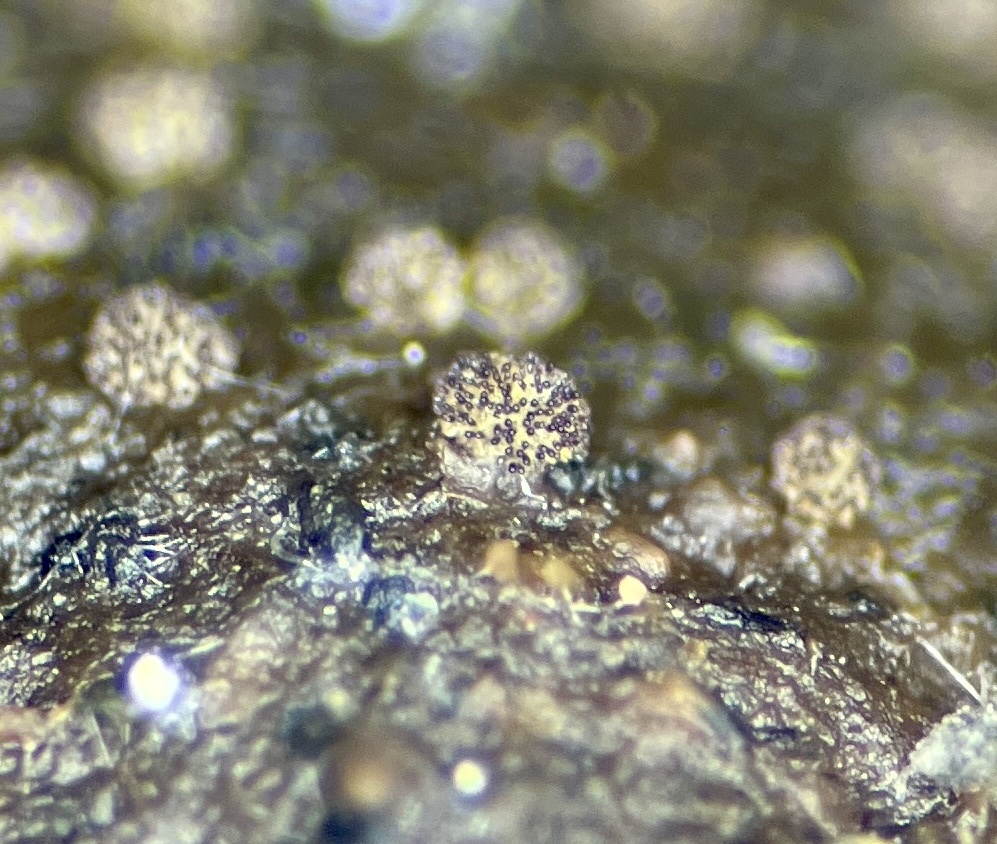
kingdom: Fungi
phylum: Ascomycota
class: Pezizomycetes
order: Pezizales
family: Ascobolaceae
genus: Saccobolus
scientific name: Saccobolus citrinus
